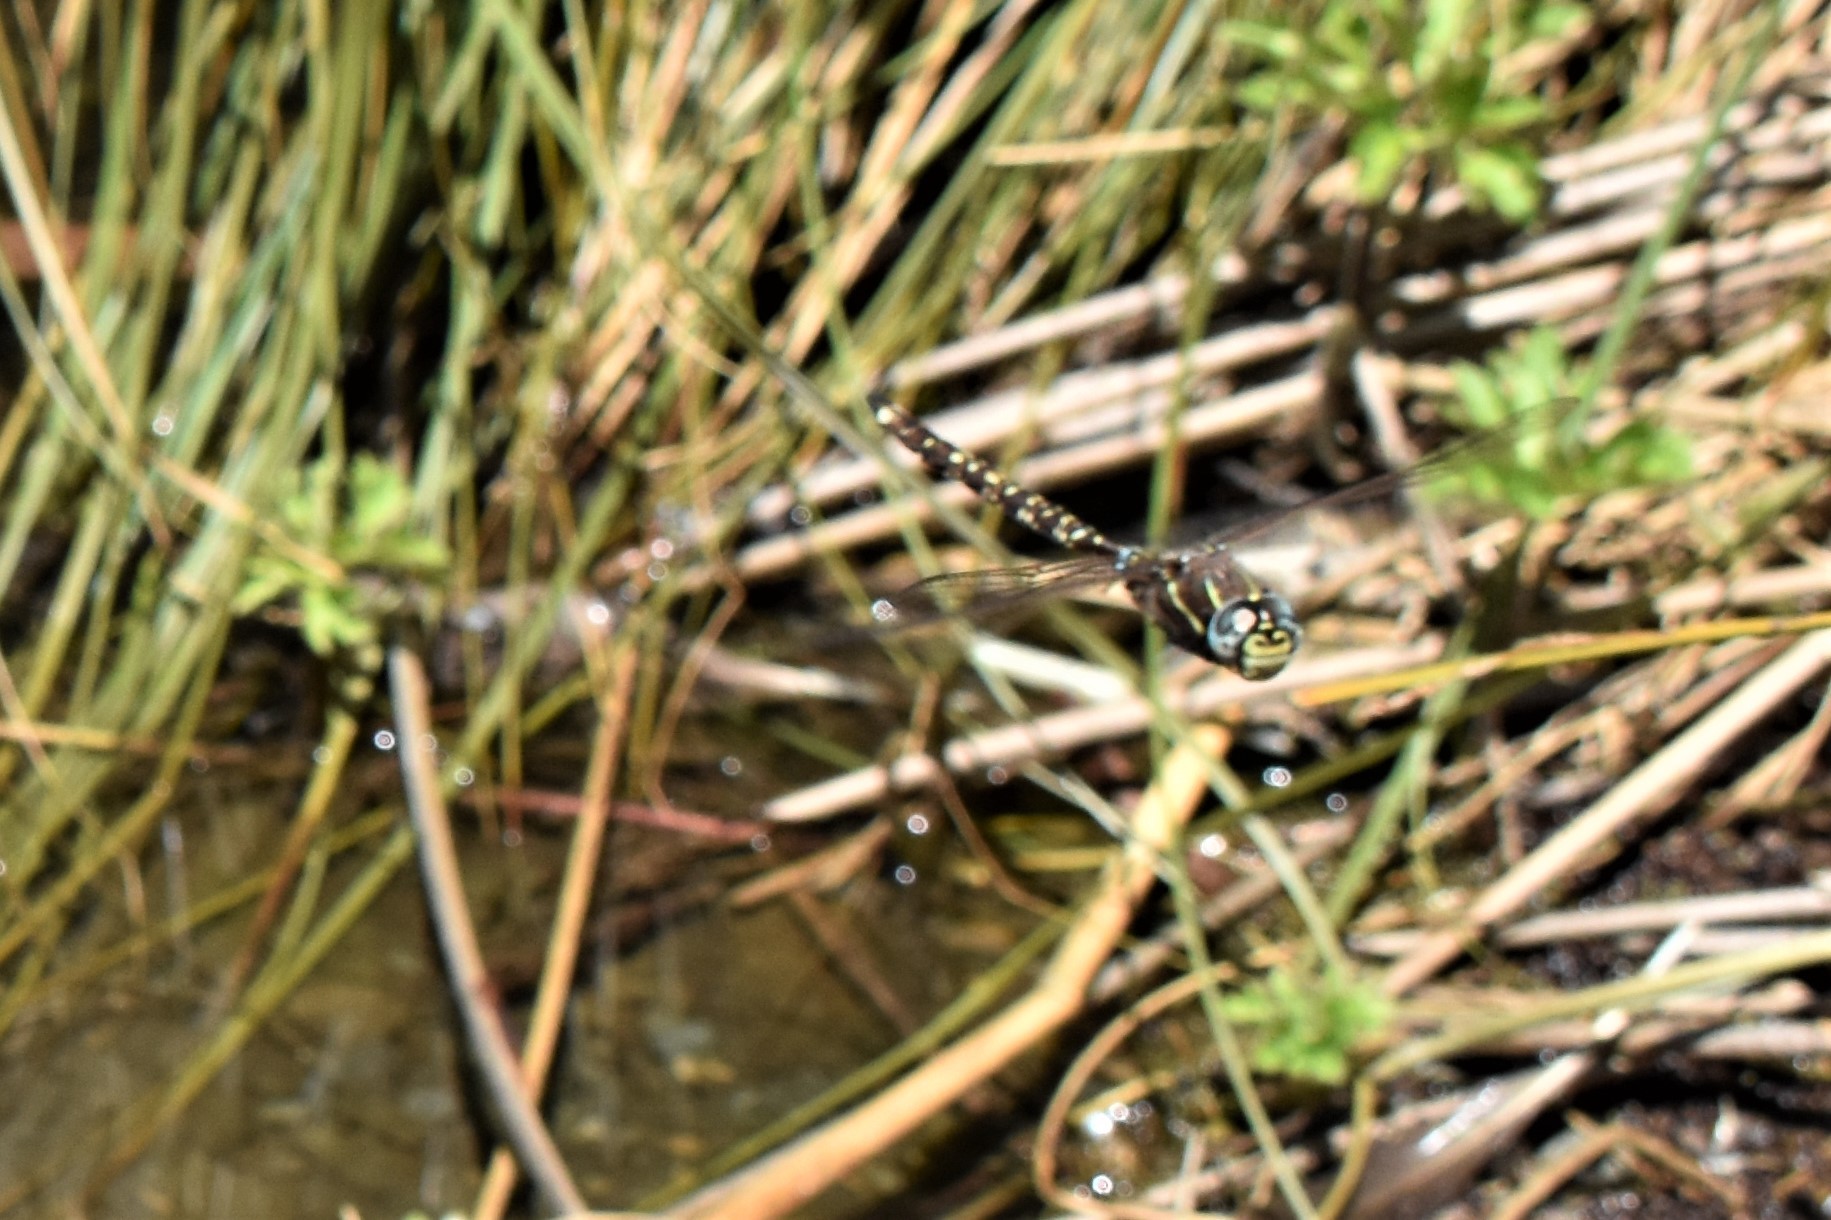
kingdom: Animalia
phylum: Arthropoda
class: Insecta
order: Odonata
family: Aeshnidae
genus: Aeshna
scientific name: Aeshna brevistyla
